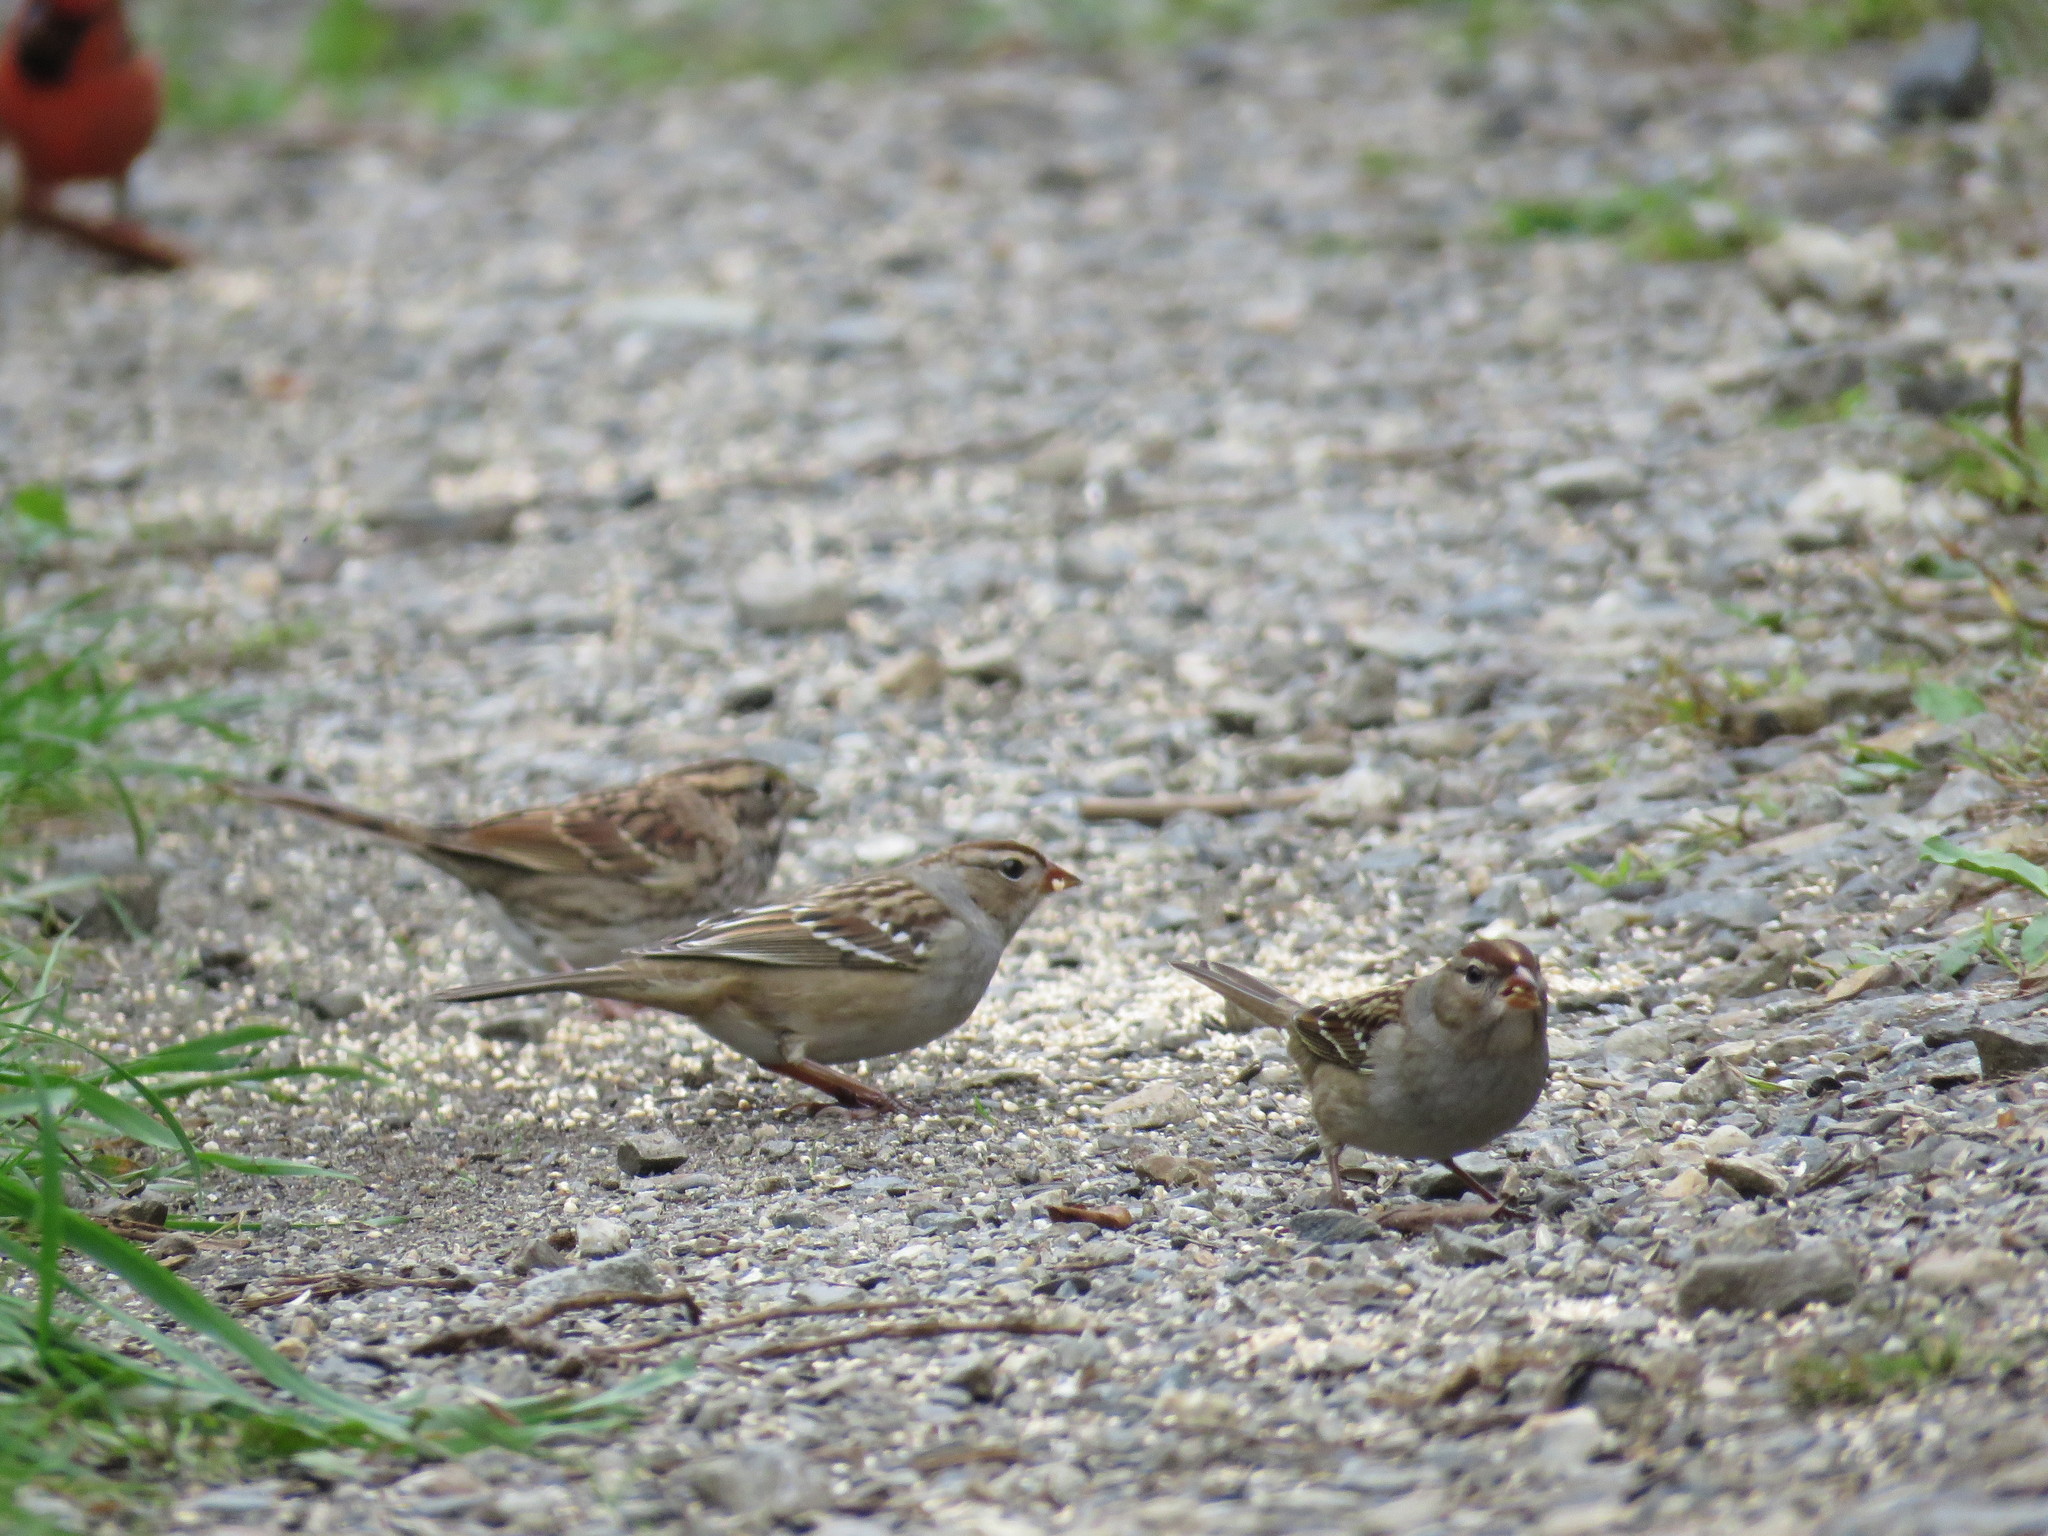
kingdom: Animalia
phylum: Chordata
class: Aves
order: Passeriformes
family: Passerellidae
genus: Zonotrichia
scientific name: Zonotrichia leucophrys
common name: White-crowned sparrow
